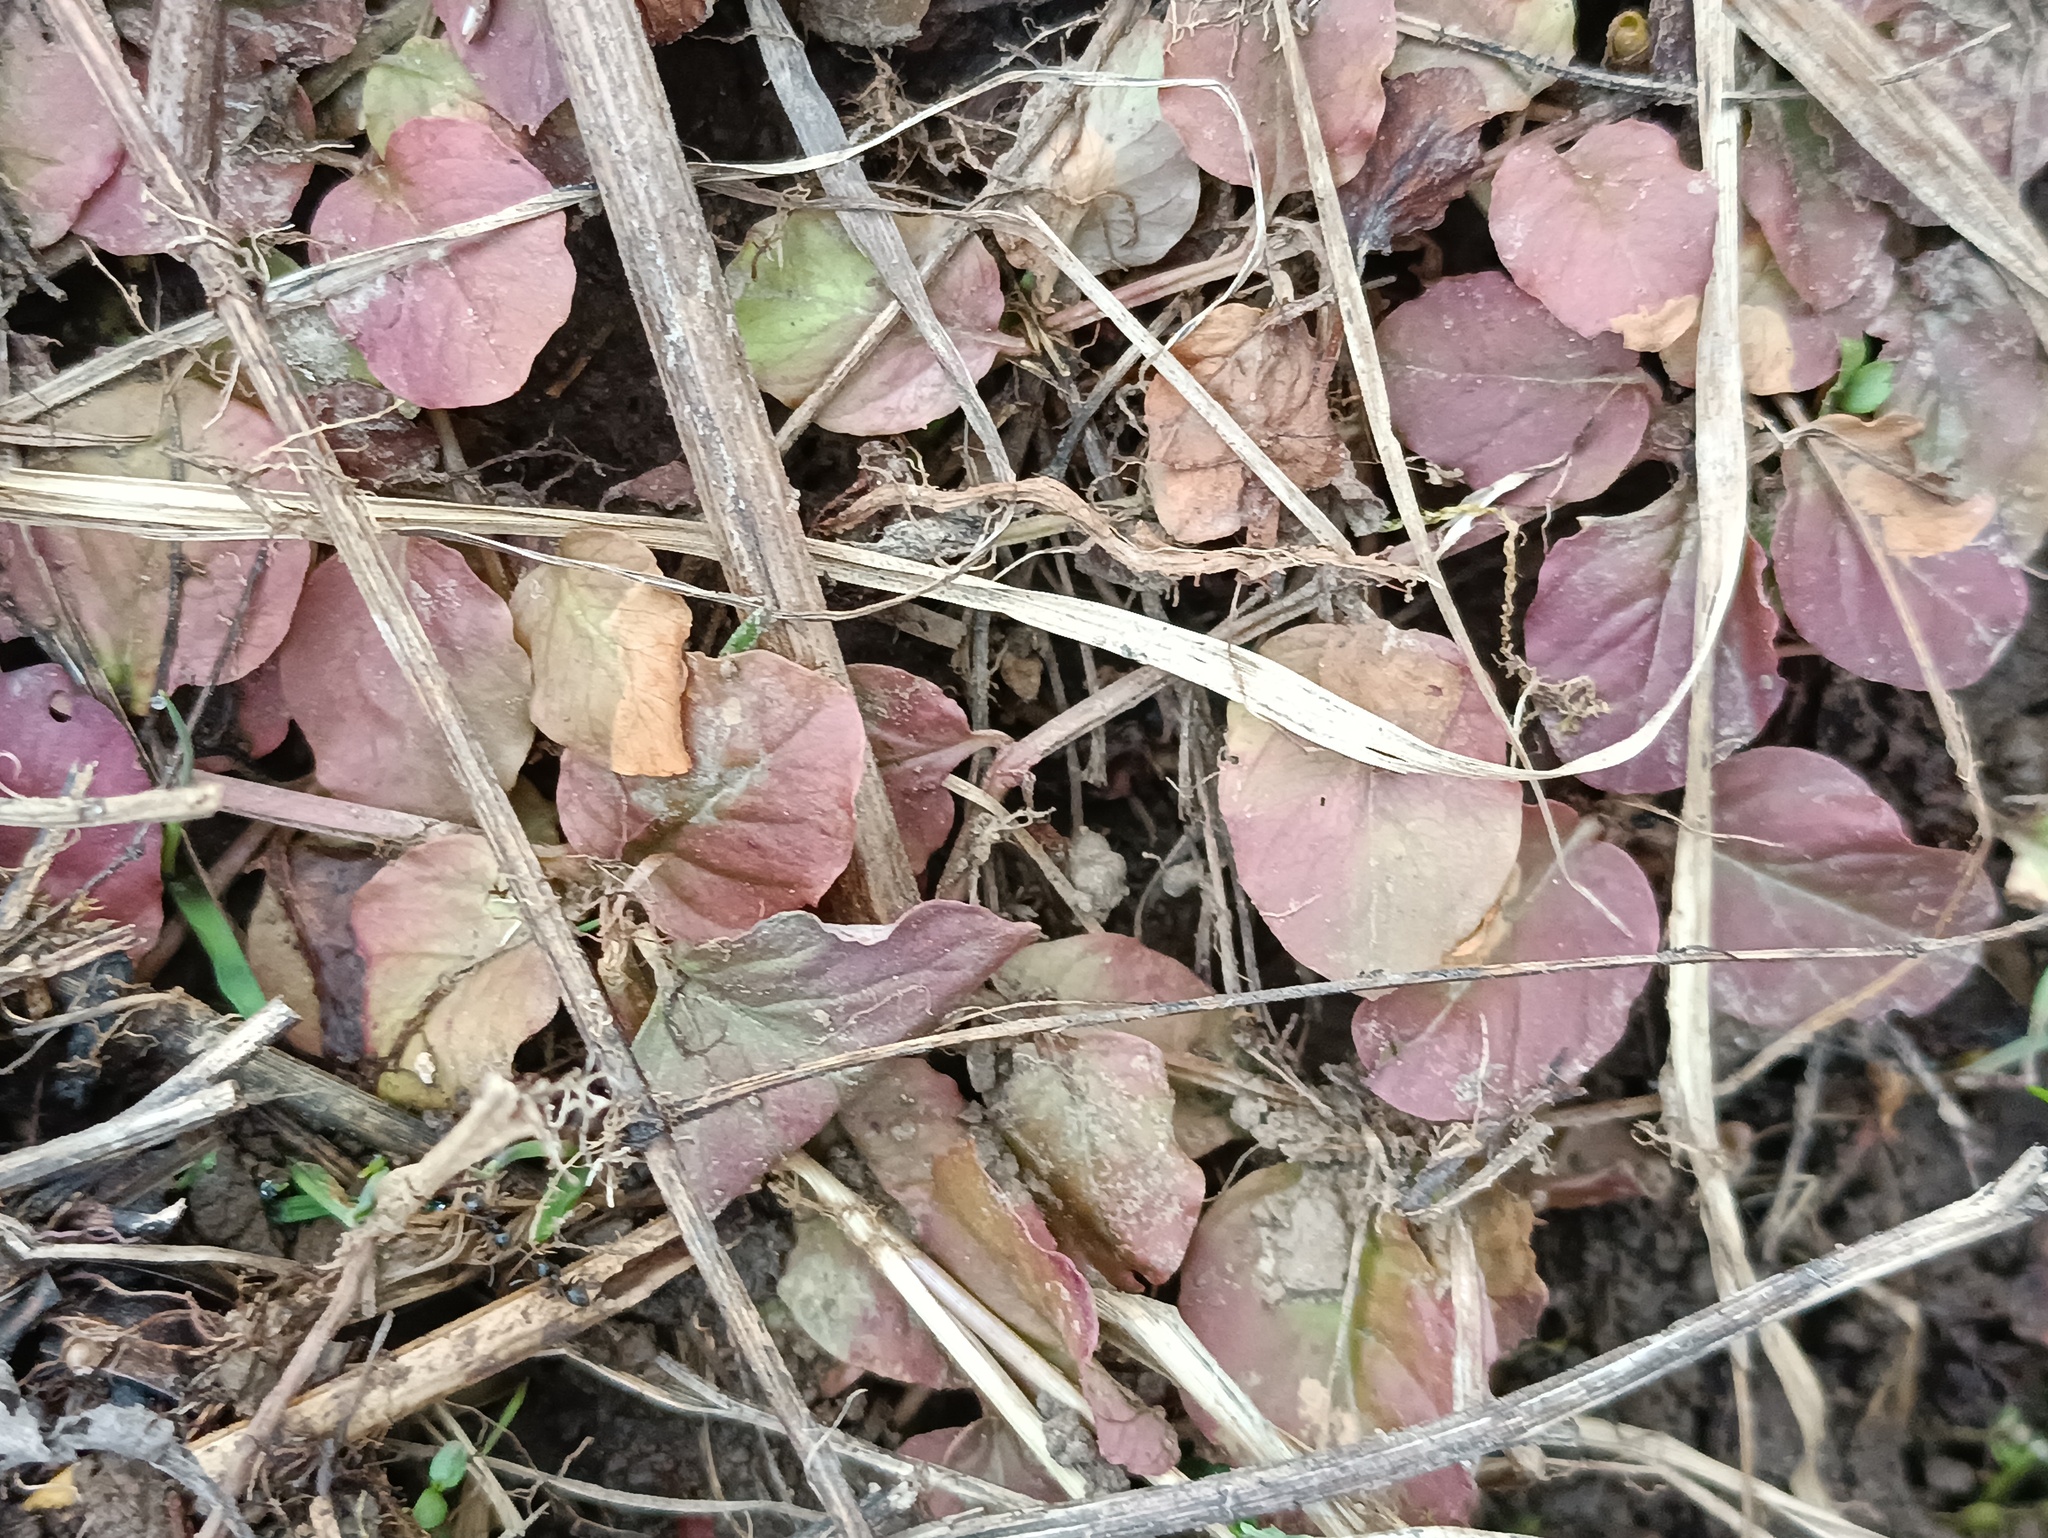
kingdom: Plantae
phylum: Tracheophyta
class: Magnoliopsida
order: Ericales
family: Primulaceae
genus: Lysimachia
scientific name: Lysimachia nummularia
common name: Moneywort
